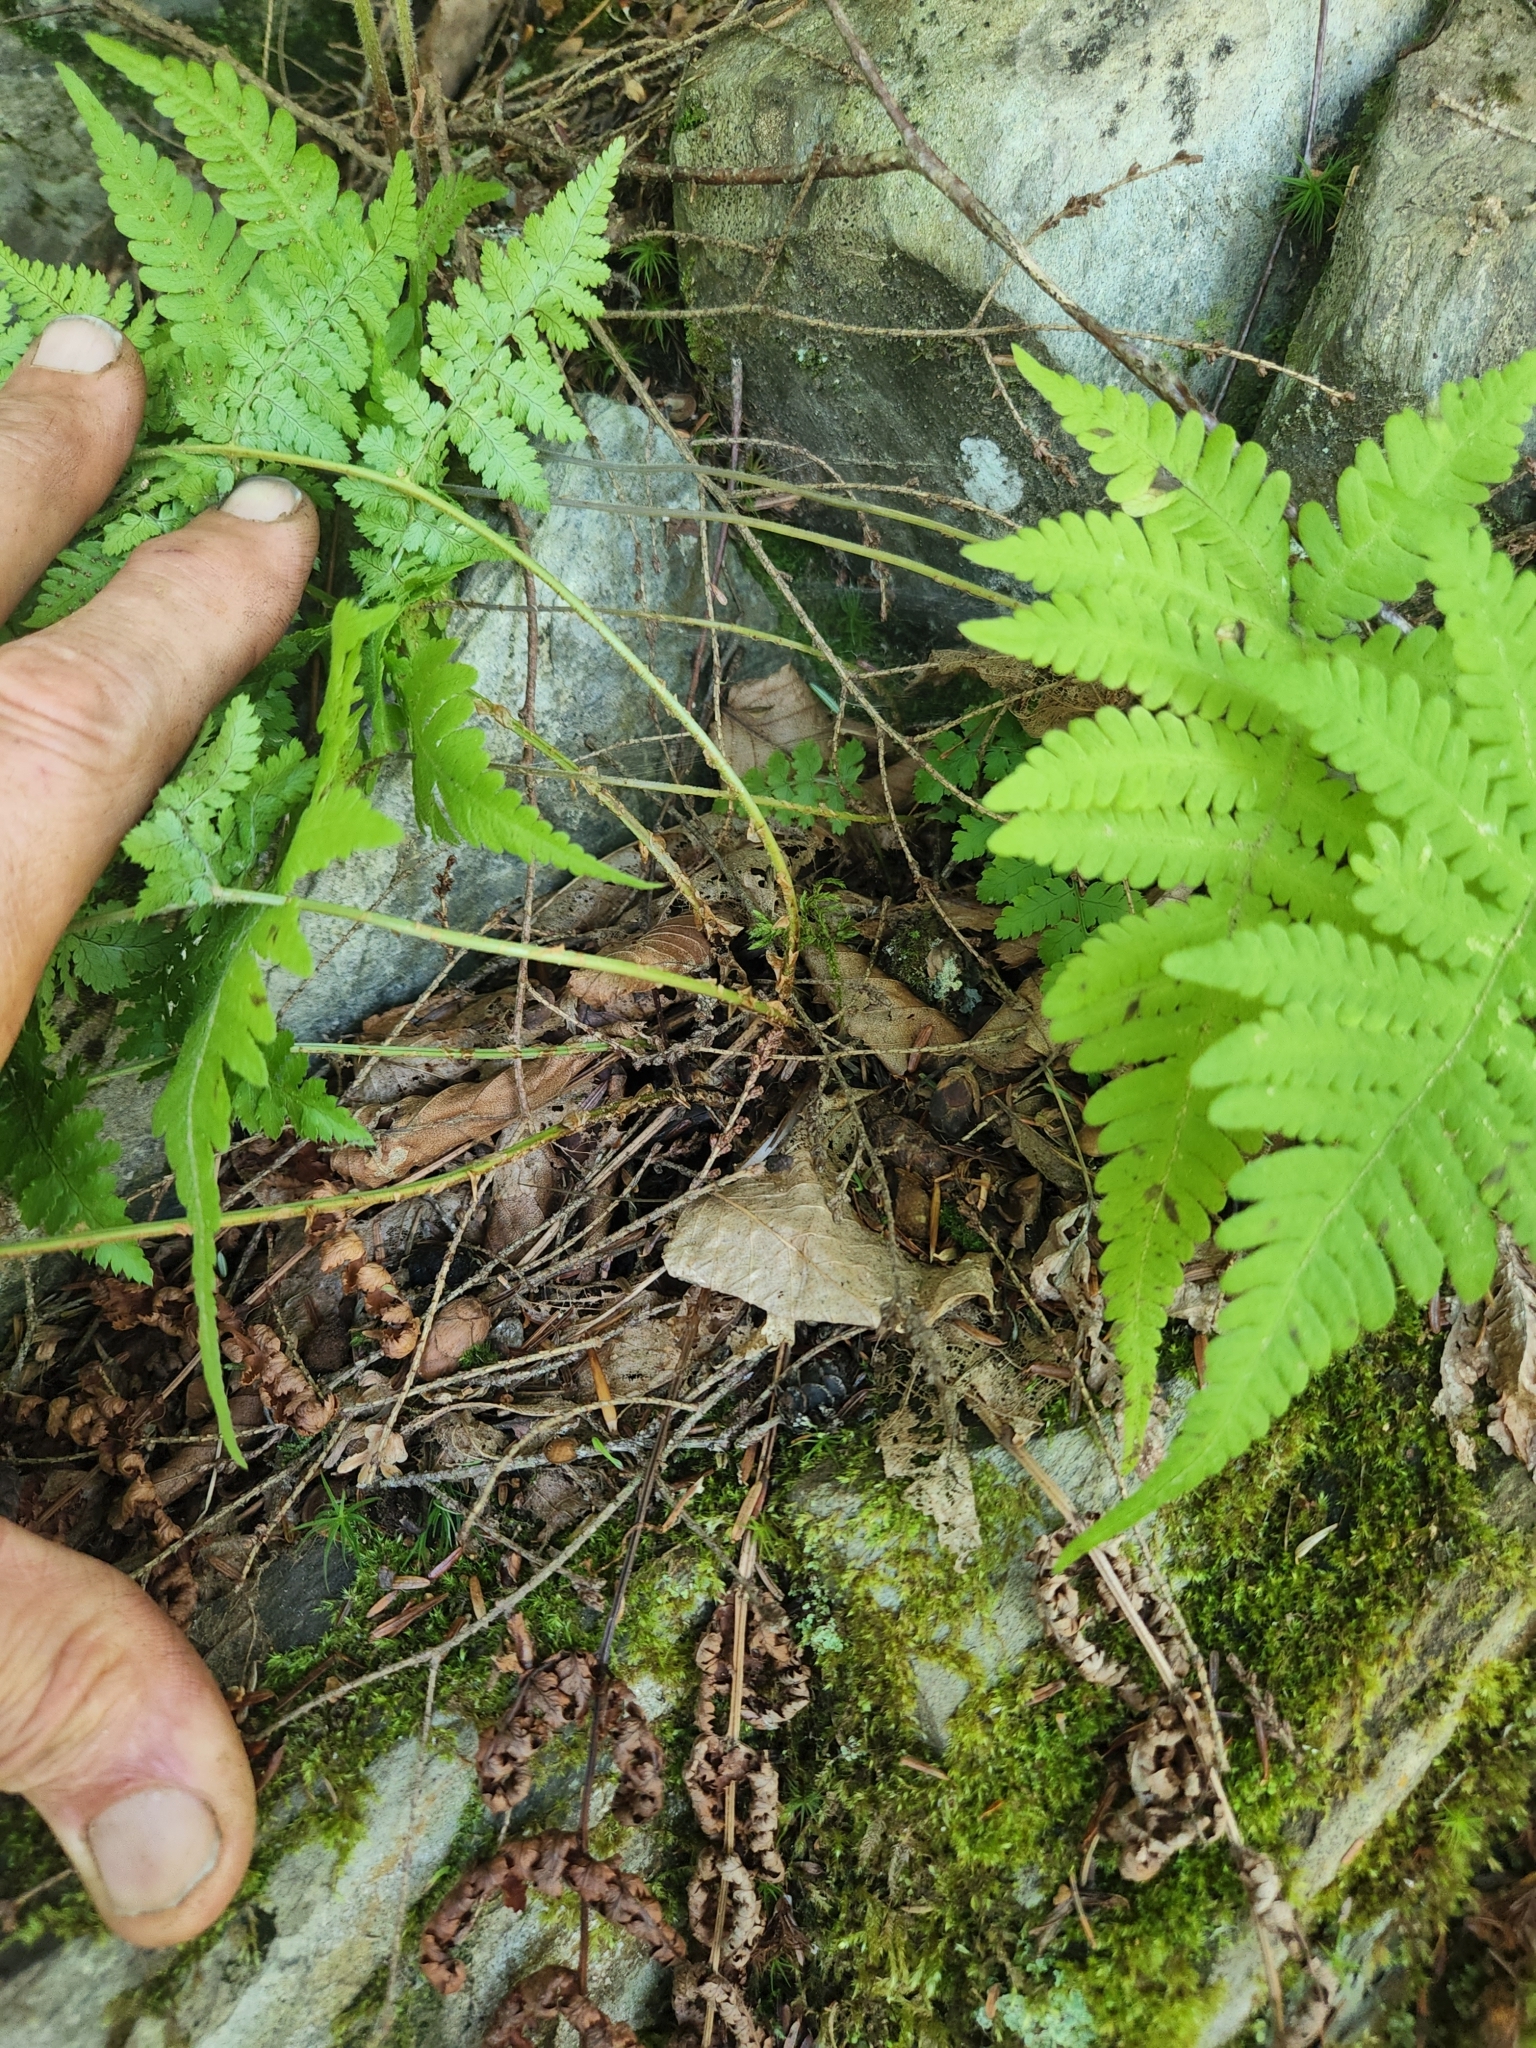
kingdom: Plantae
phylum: Tracheophyta
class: Polypodiopsida
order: Polypodiales
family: Dryopteridaceae
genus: Dryopteris
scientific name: Dryopteris intermedia
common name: Evergreen wood fern
